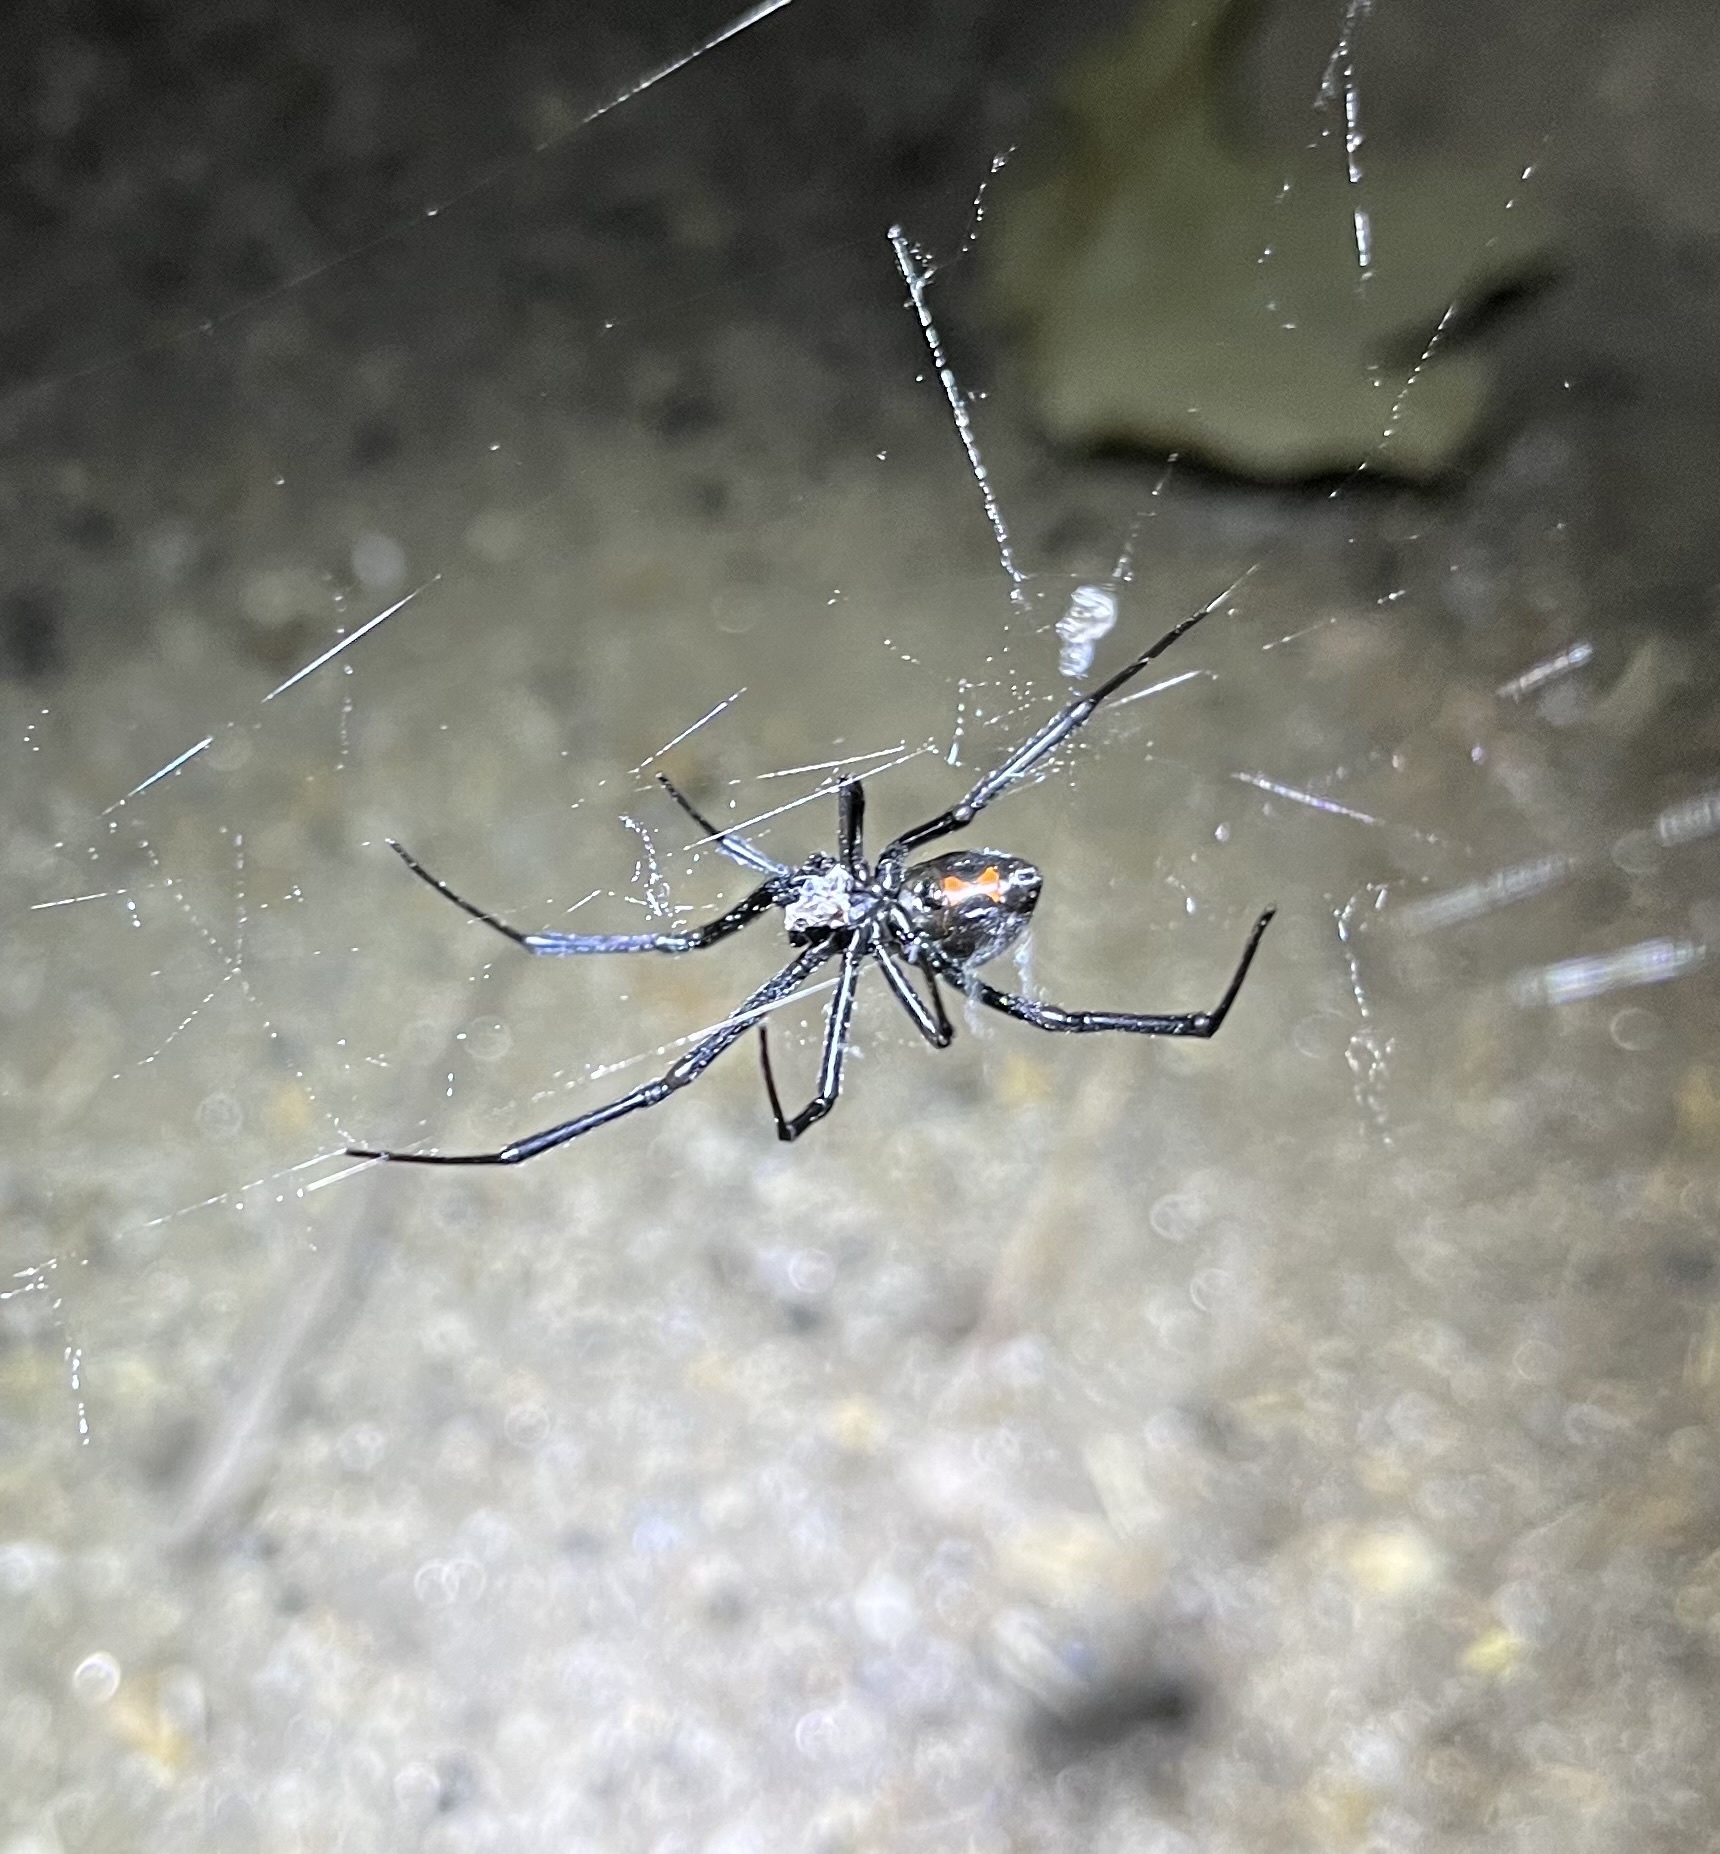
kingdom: Animalia
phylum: Arthropoda
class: Arachnida
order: Araneae
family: Theridiidae
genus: Latrodectus
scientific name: Latrodectus hesperus
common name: Western black widow
